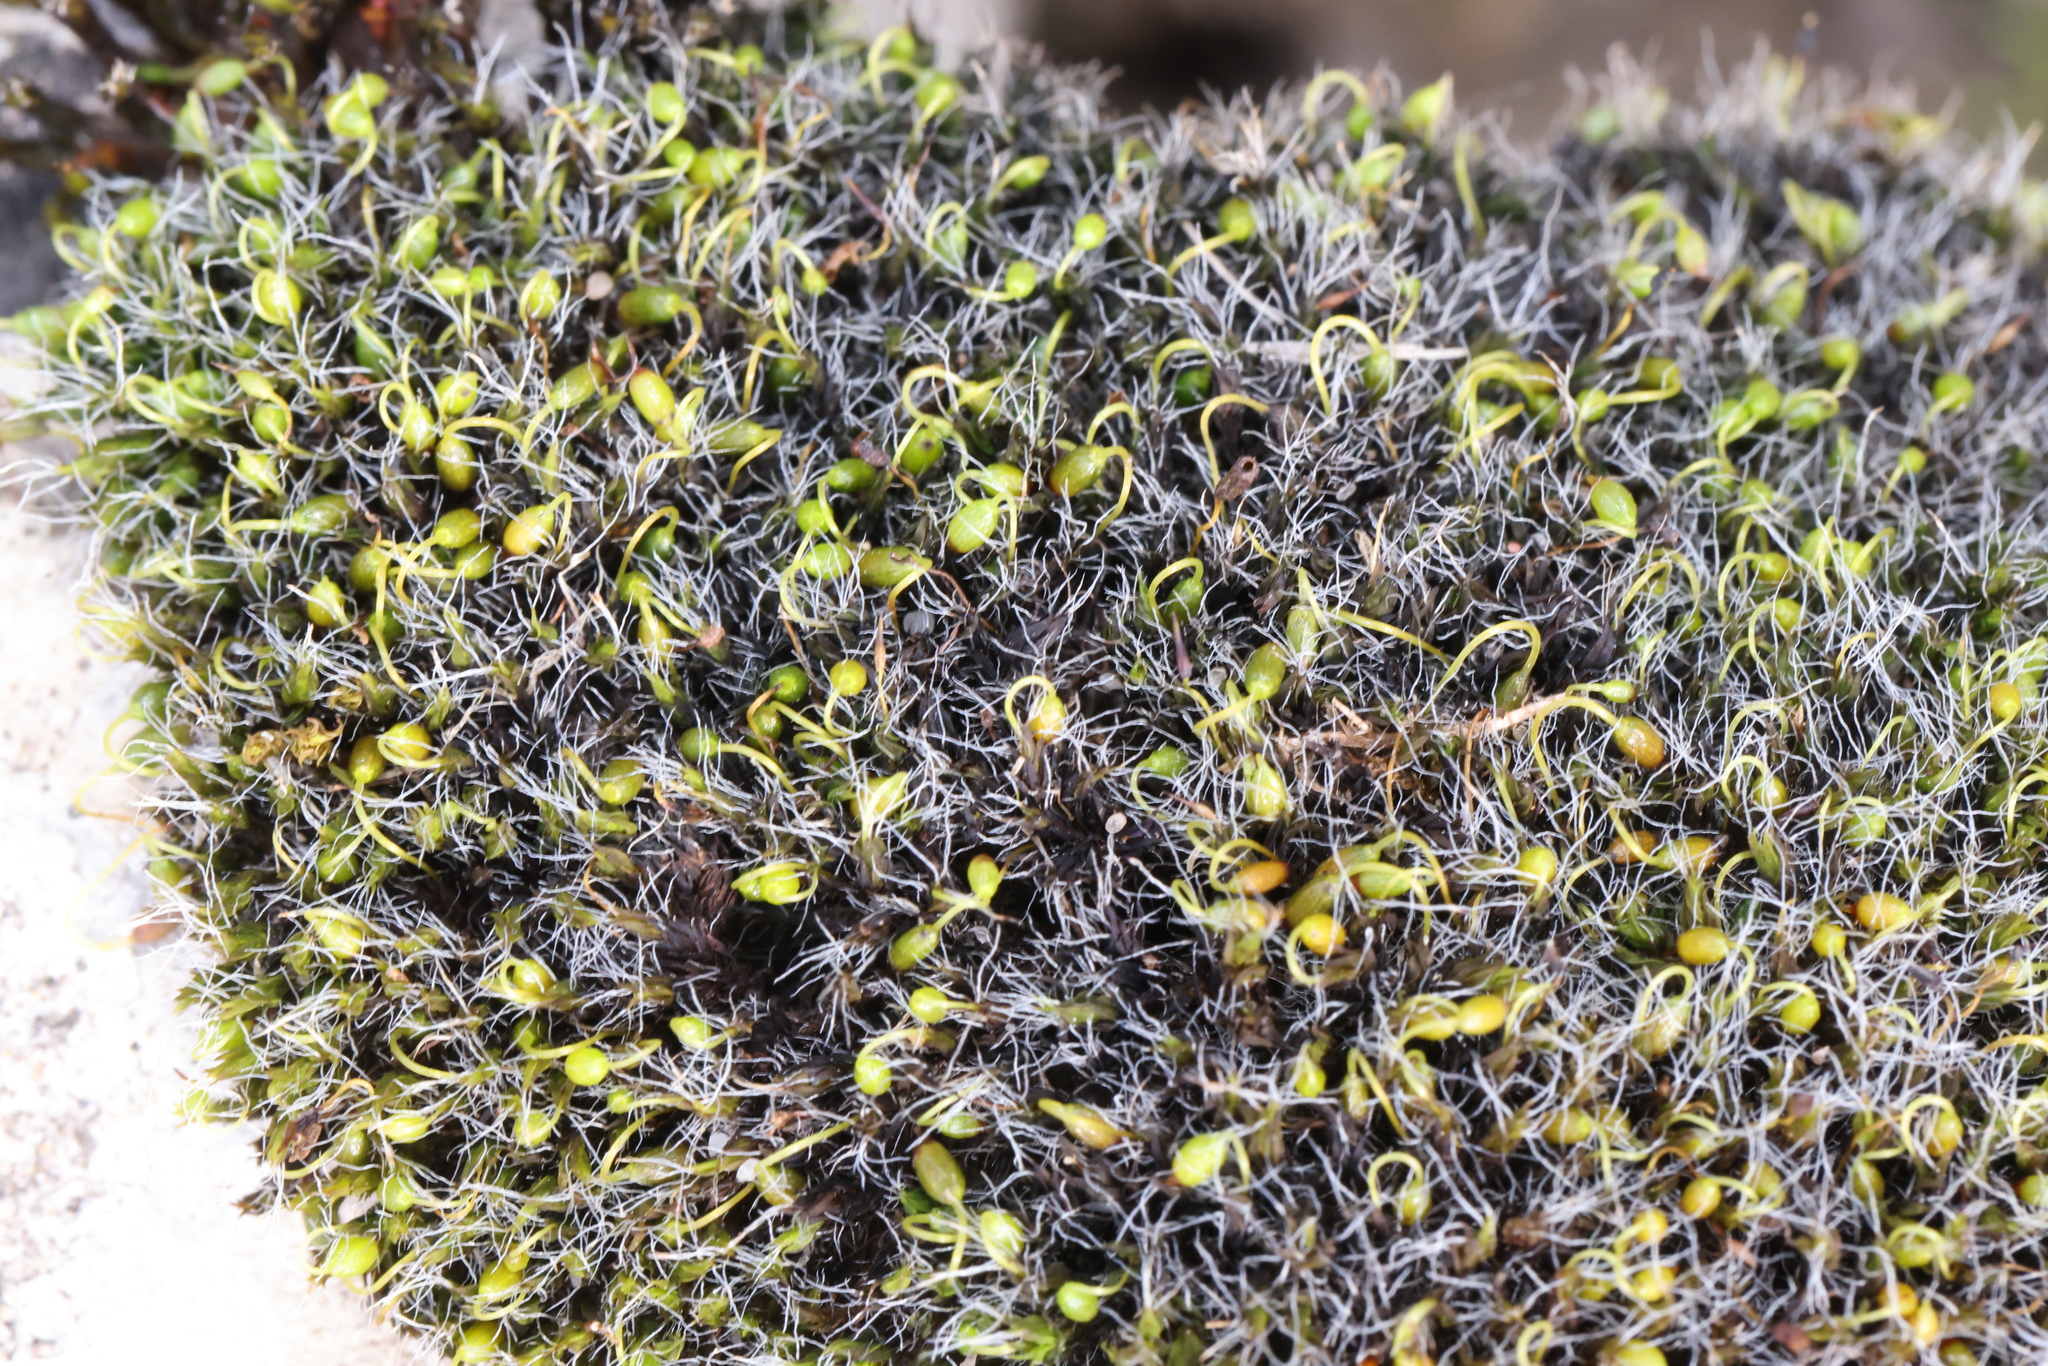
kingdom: Plantae
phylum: Bryophyta
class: Bryopsida
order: Grimmiales
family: Grimmiaceae
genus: Grimmia
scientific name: Grimmia pulvinata
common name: Grey-cushioned grimmia
